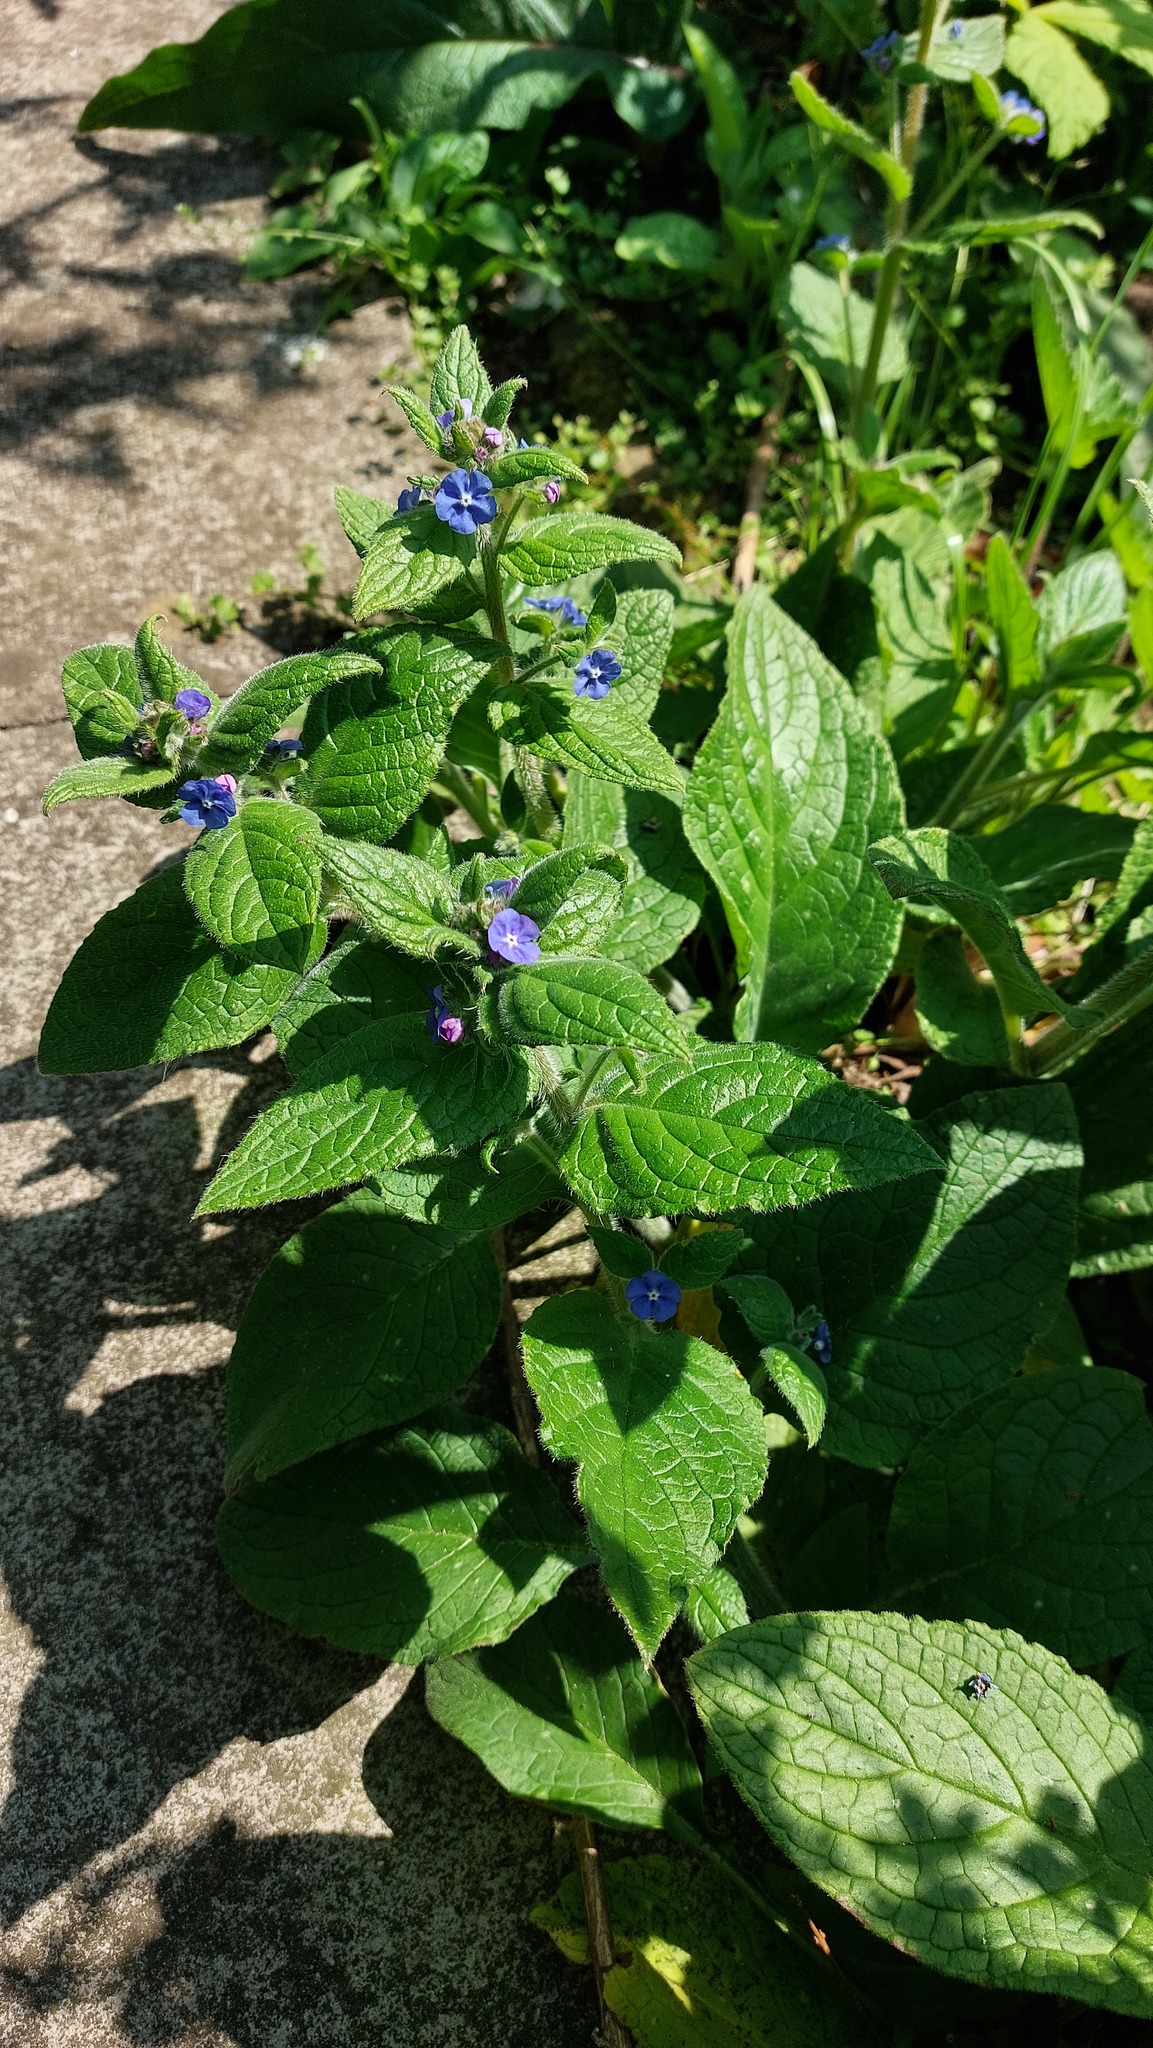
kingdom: Plantae
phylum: Tracheophyta
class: Magnoliopsida
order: Boraginales
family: Boraginaceae
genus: Pentaglottis
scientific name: Pentaglottis sempervirens
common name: Green alkanet
